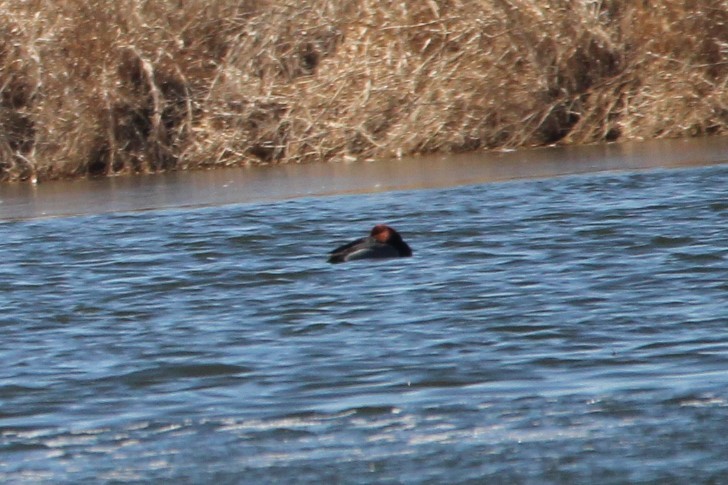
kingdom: Animalia
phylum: Chordata
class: Aves
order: Anseriformes
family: Anatidae
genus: Aythya
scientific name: Aythya americana
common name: Redhead
